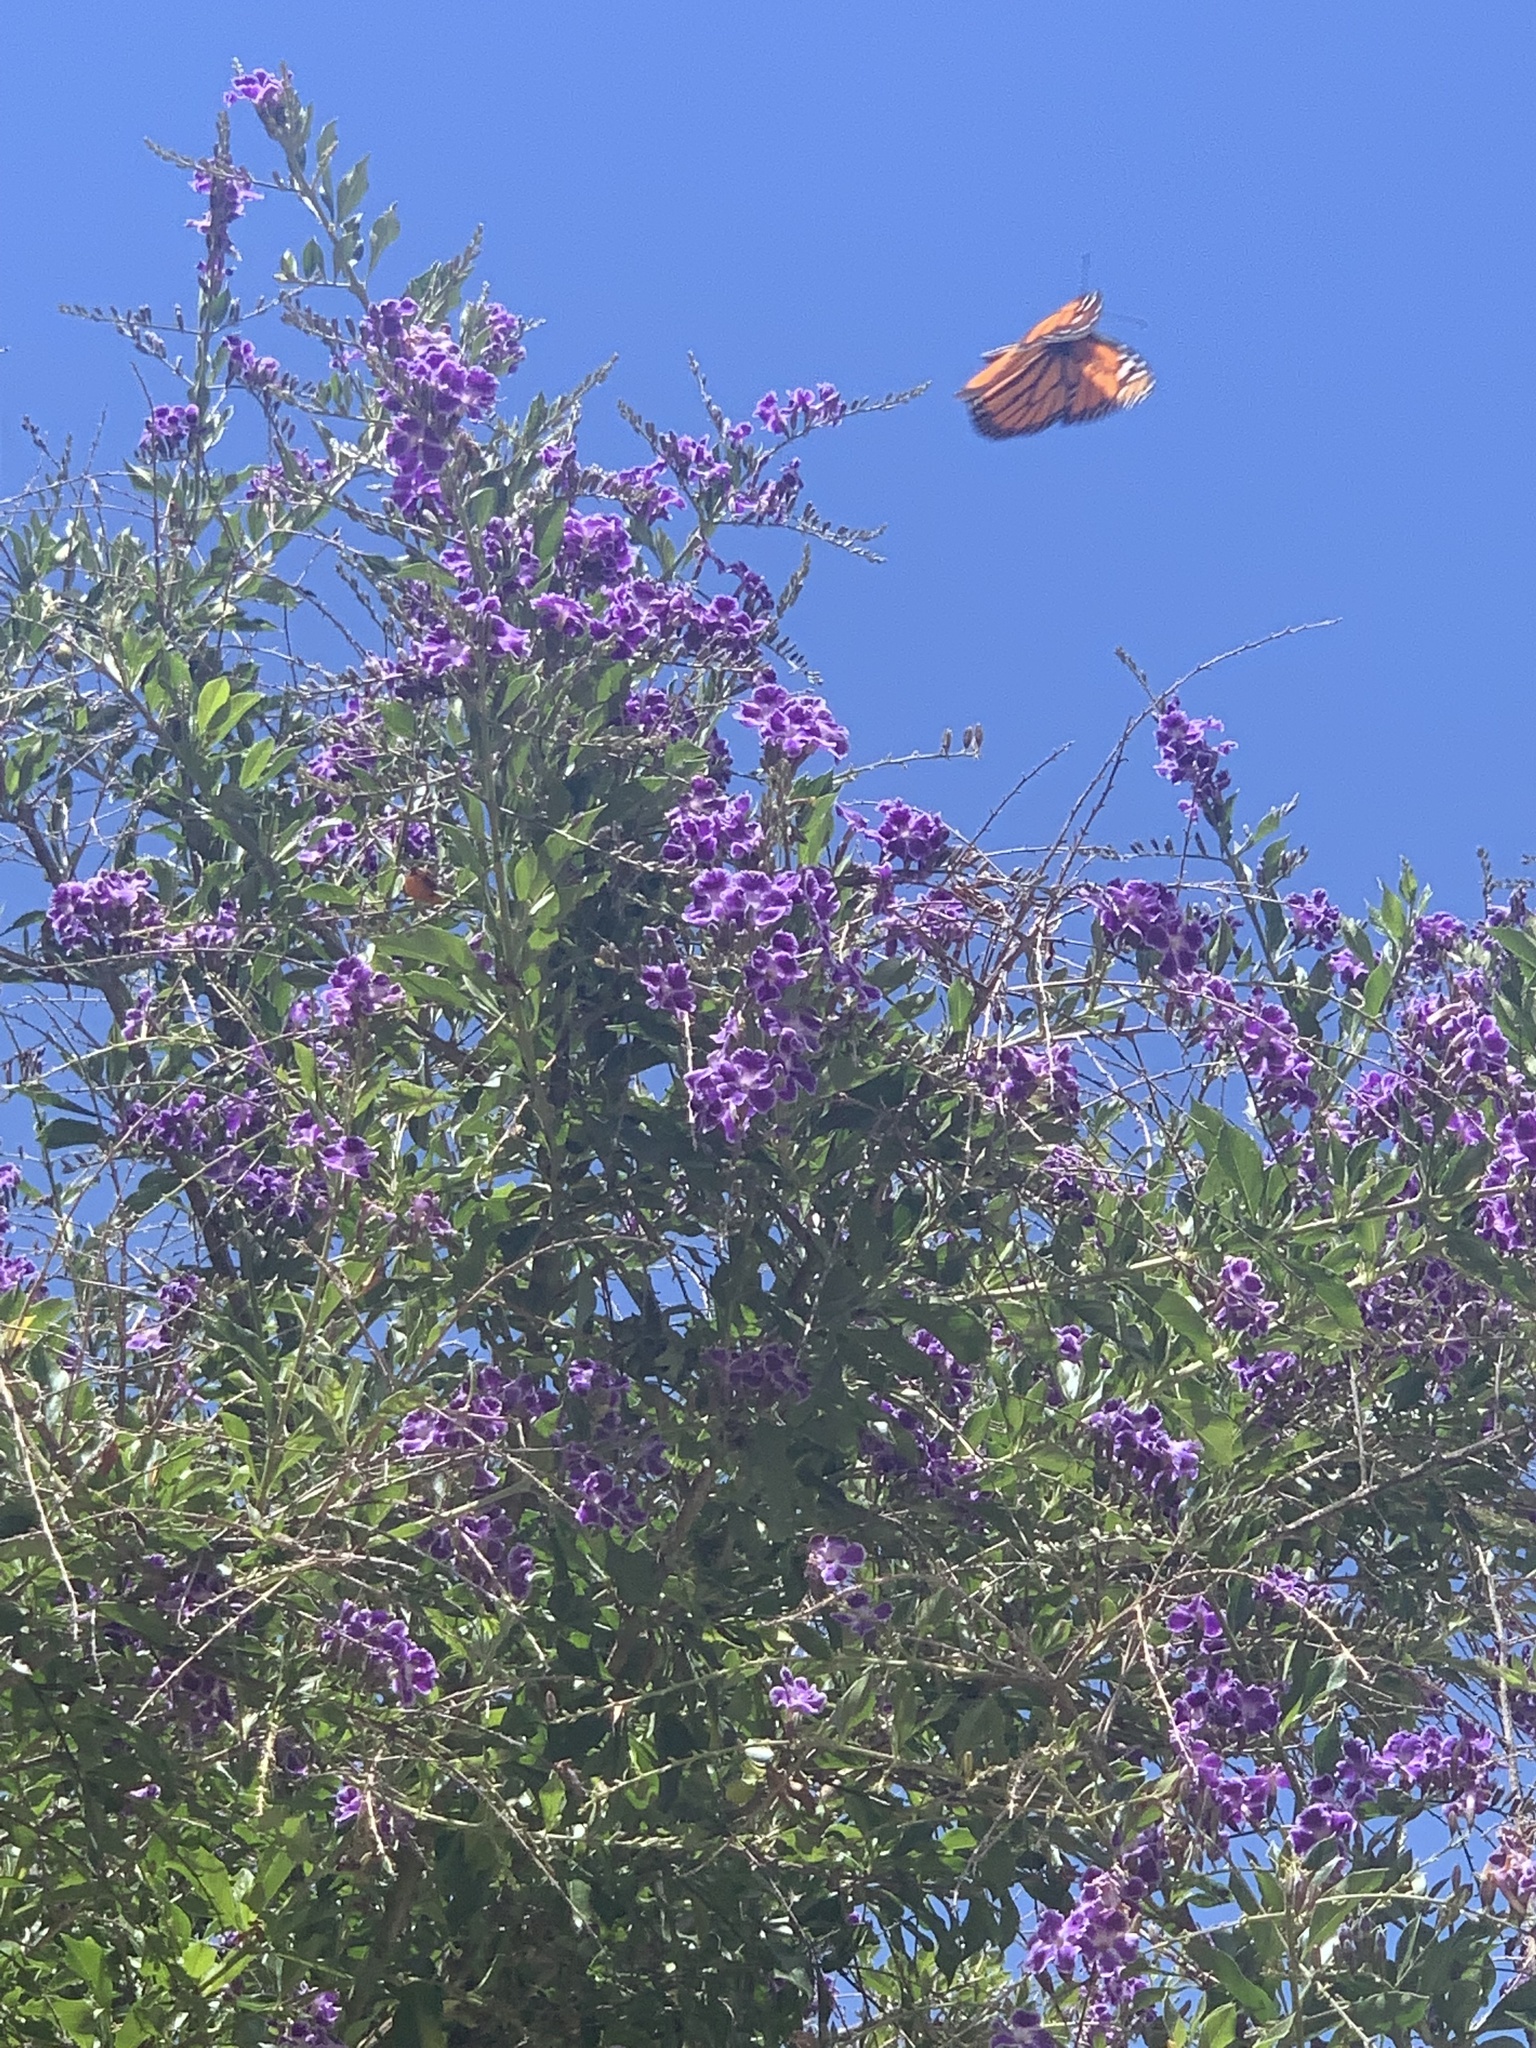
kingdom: Animalia
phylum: Arthropoda
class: Insecta
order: Lepidoptera
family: Nymphalidae
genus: Danaus
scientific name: Danaus plexippus
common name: Monarch
